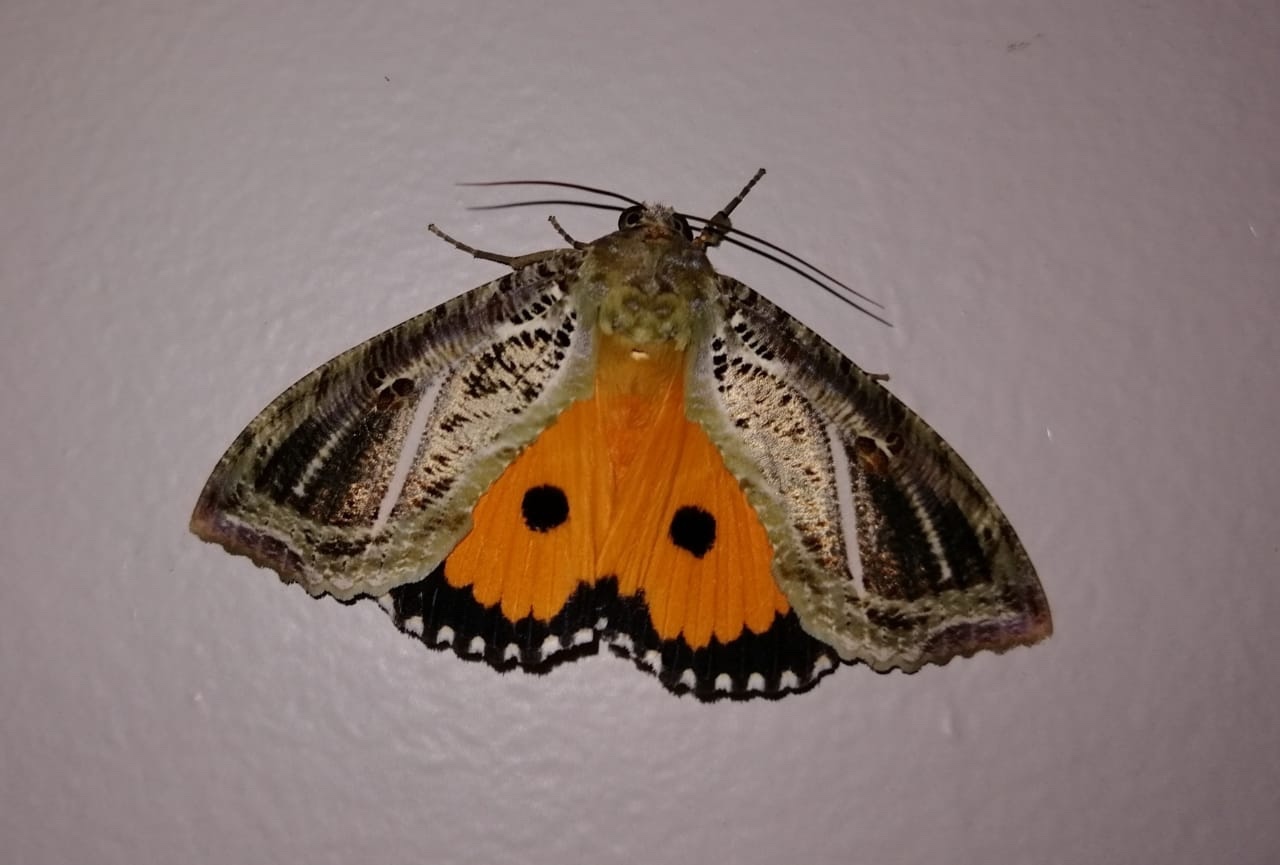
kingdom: Animalia
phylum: Arthropoda
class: Insecta
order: Lepidoptera
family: Erebidae
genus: Eudocima
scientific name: Eudocima materna
